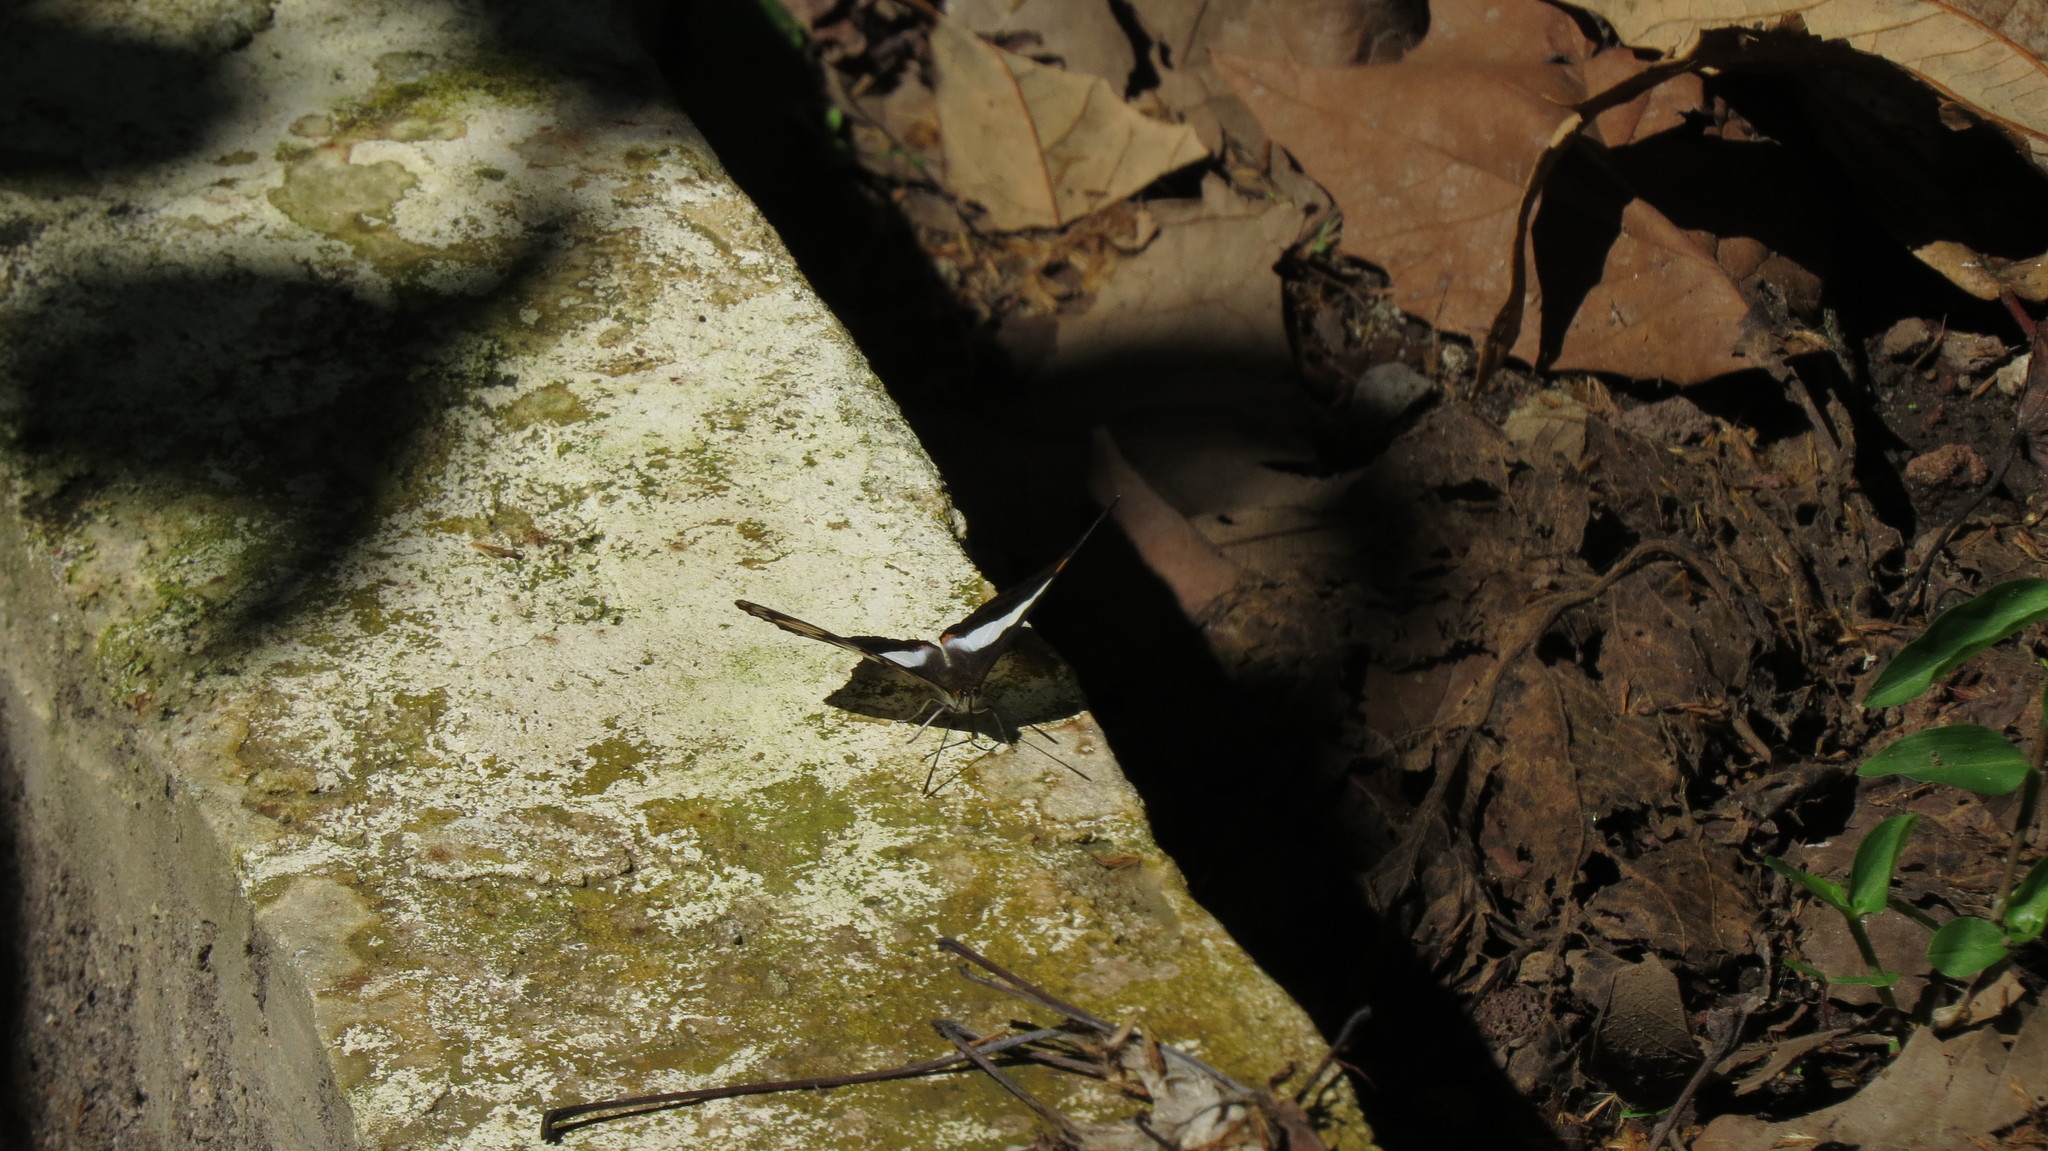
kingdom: Animalia
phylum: Arthropoda
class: Insecta
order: Lepidoptera
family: Nymphalidae
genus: Limenitis
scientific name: Limenitis Adelpha basiloides
